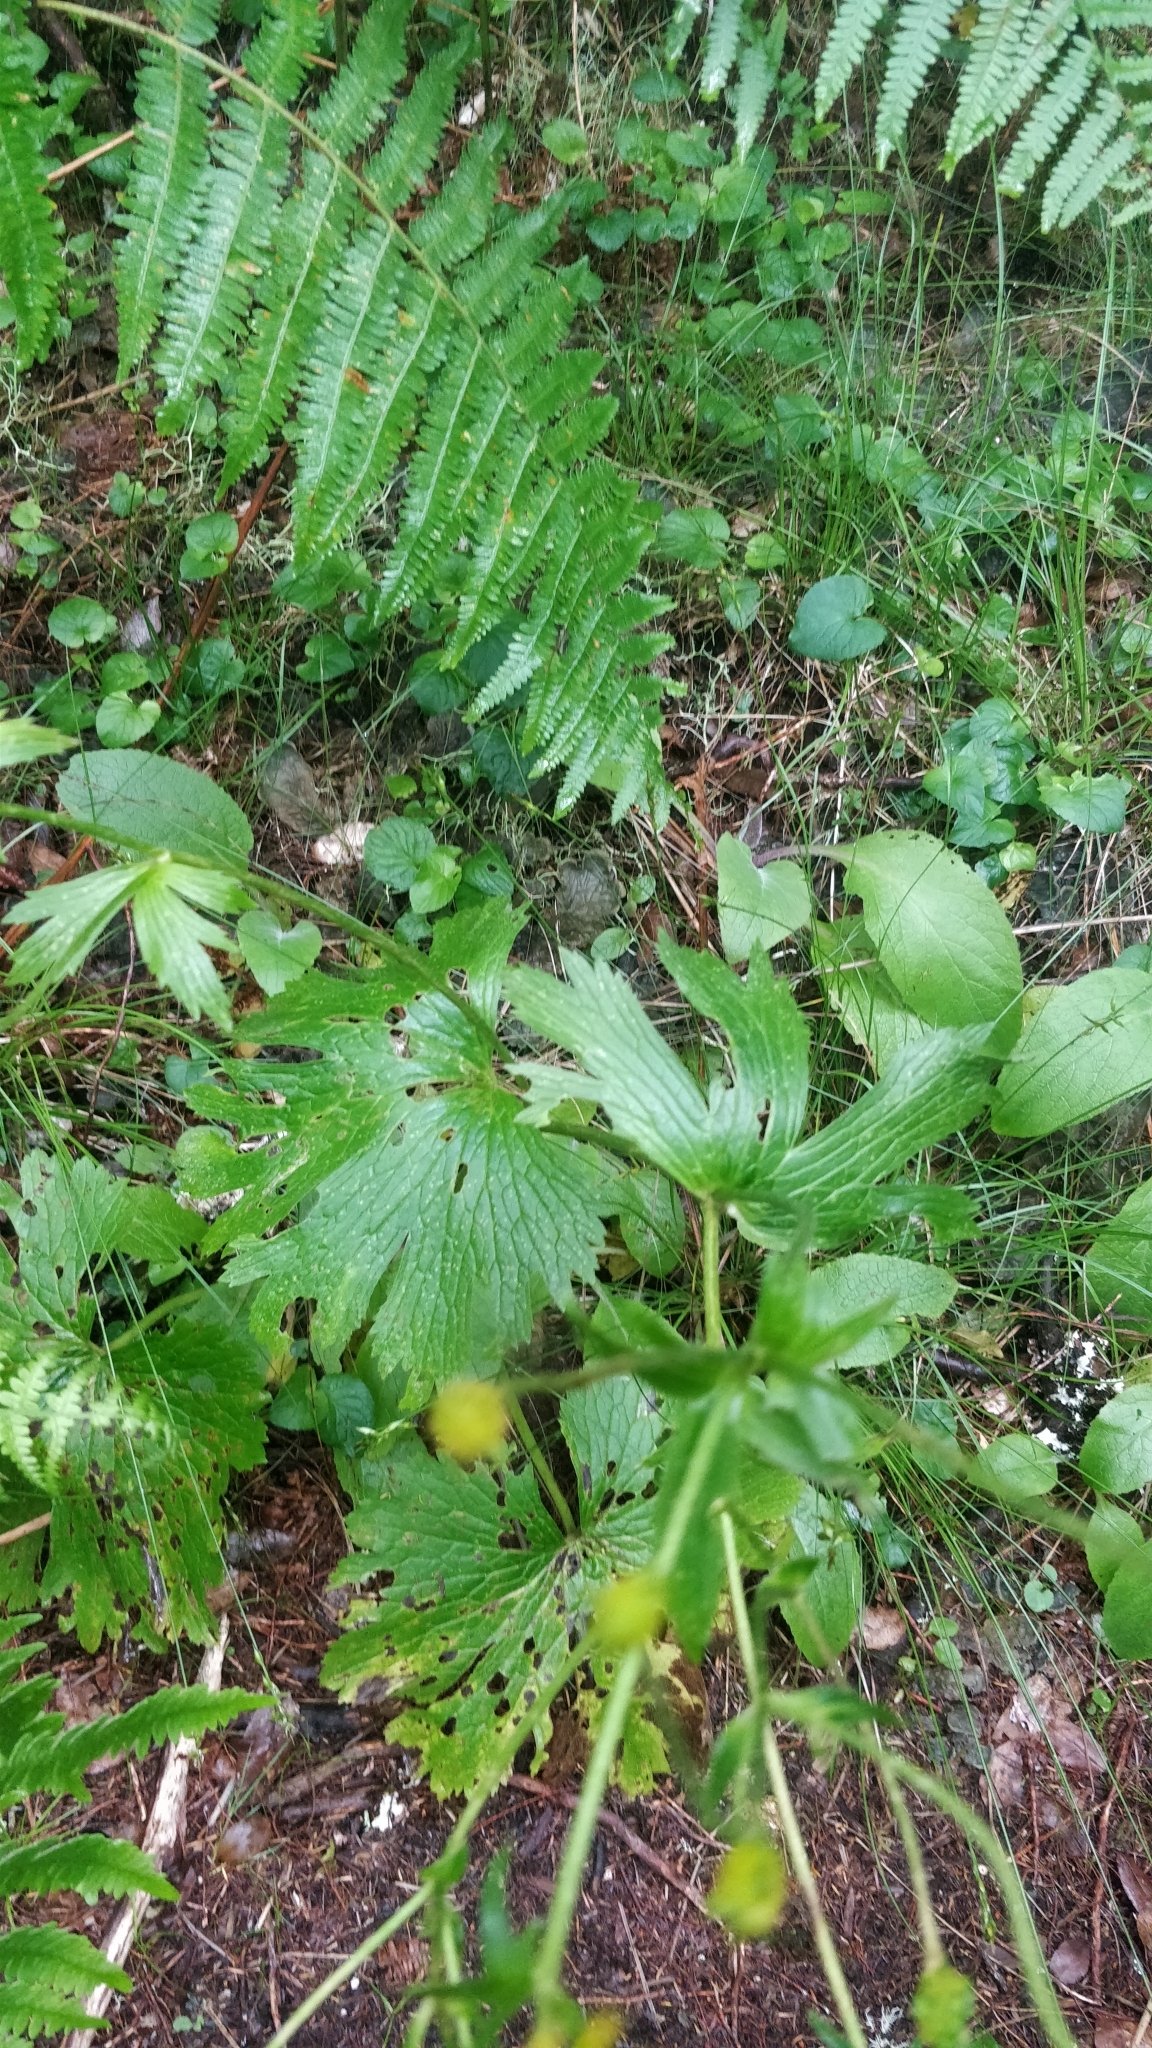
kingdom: Plantae
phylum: Tracheophyta
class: Magnoliopsida
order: Ranunculales
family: Ranunculaceae
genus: Ranunculus
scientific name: Ranunculus cortusifolius
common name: Azores buttercup
